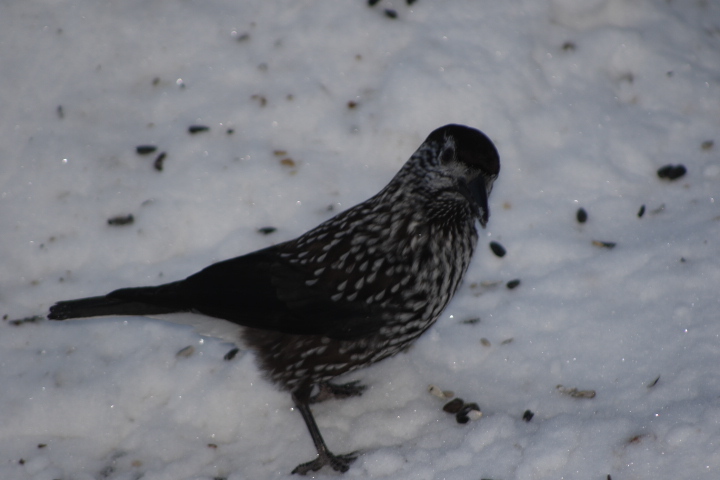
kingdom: Animalia
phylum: Chordata
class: Aves
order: Passeriformes
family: Corvidae
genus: Nucifraga
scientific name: Nucifraga caryocatactes
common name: Spotted nutcracker
